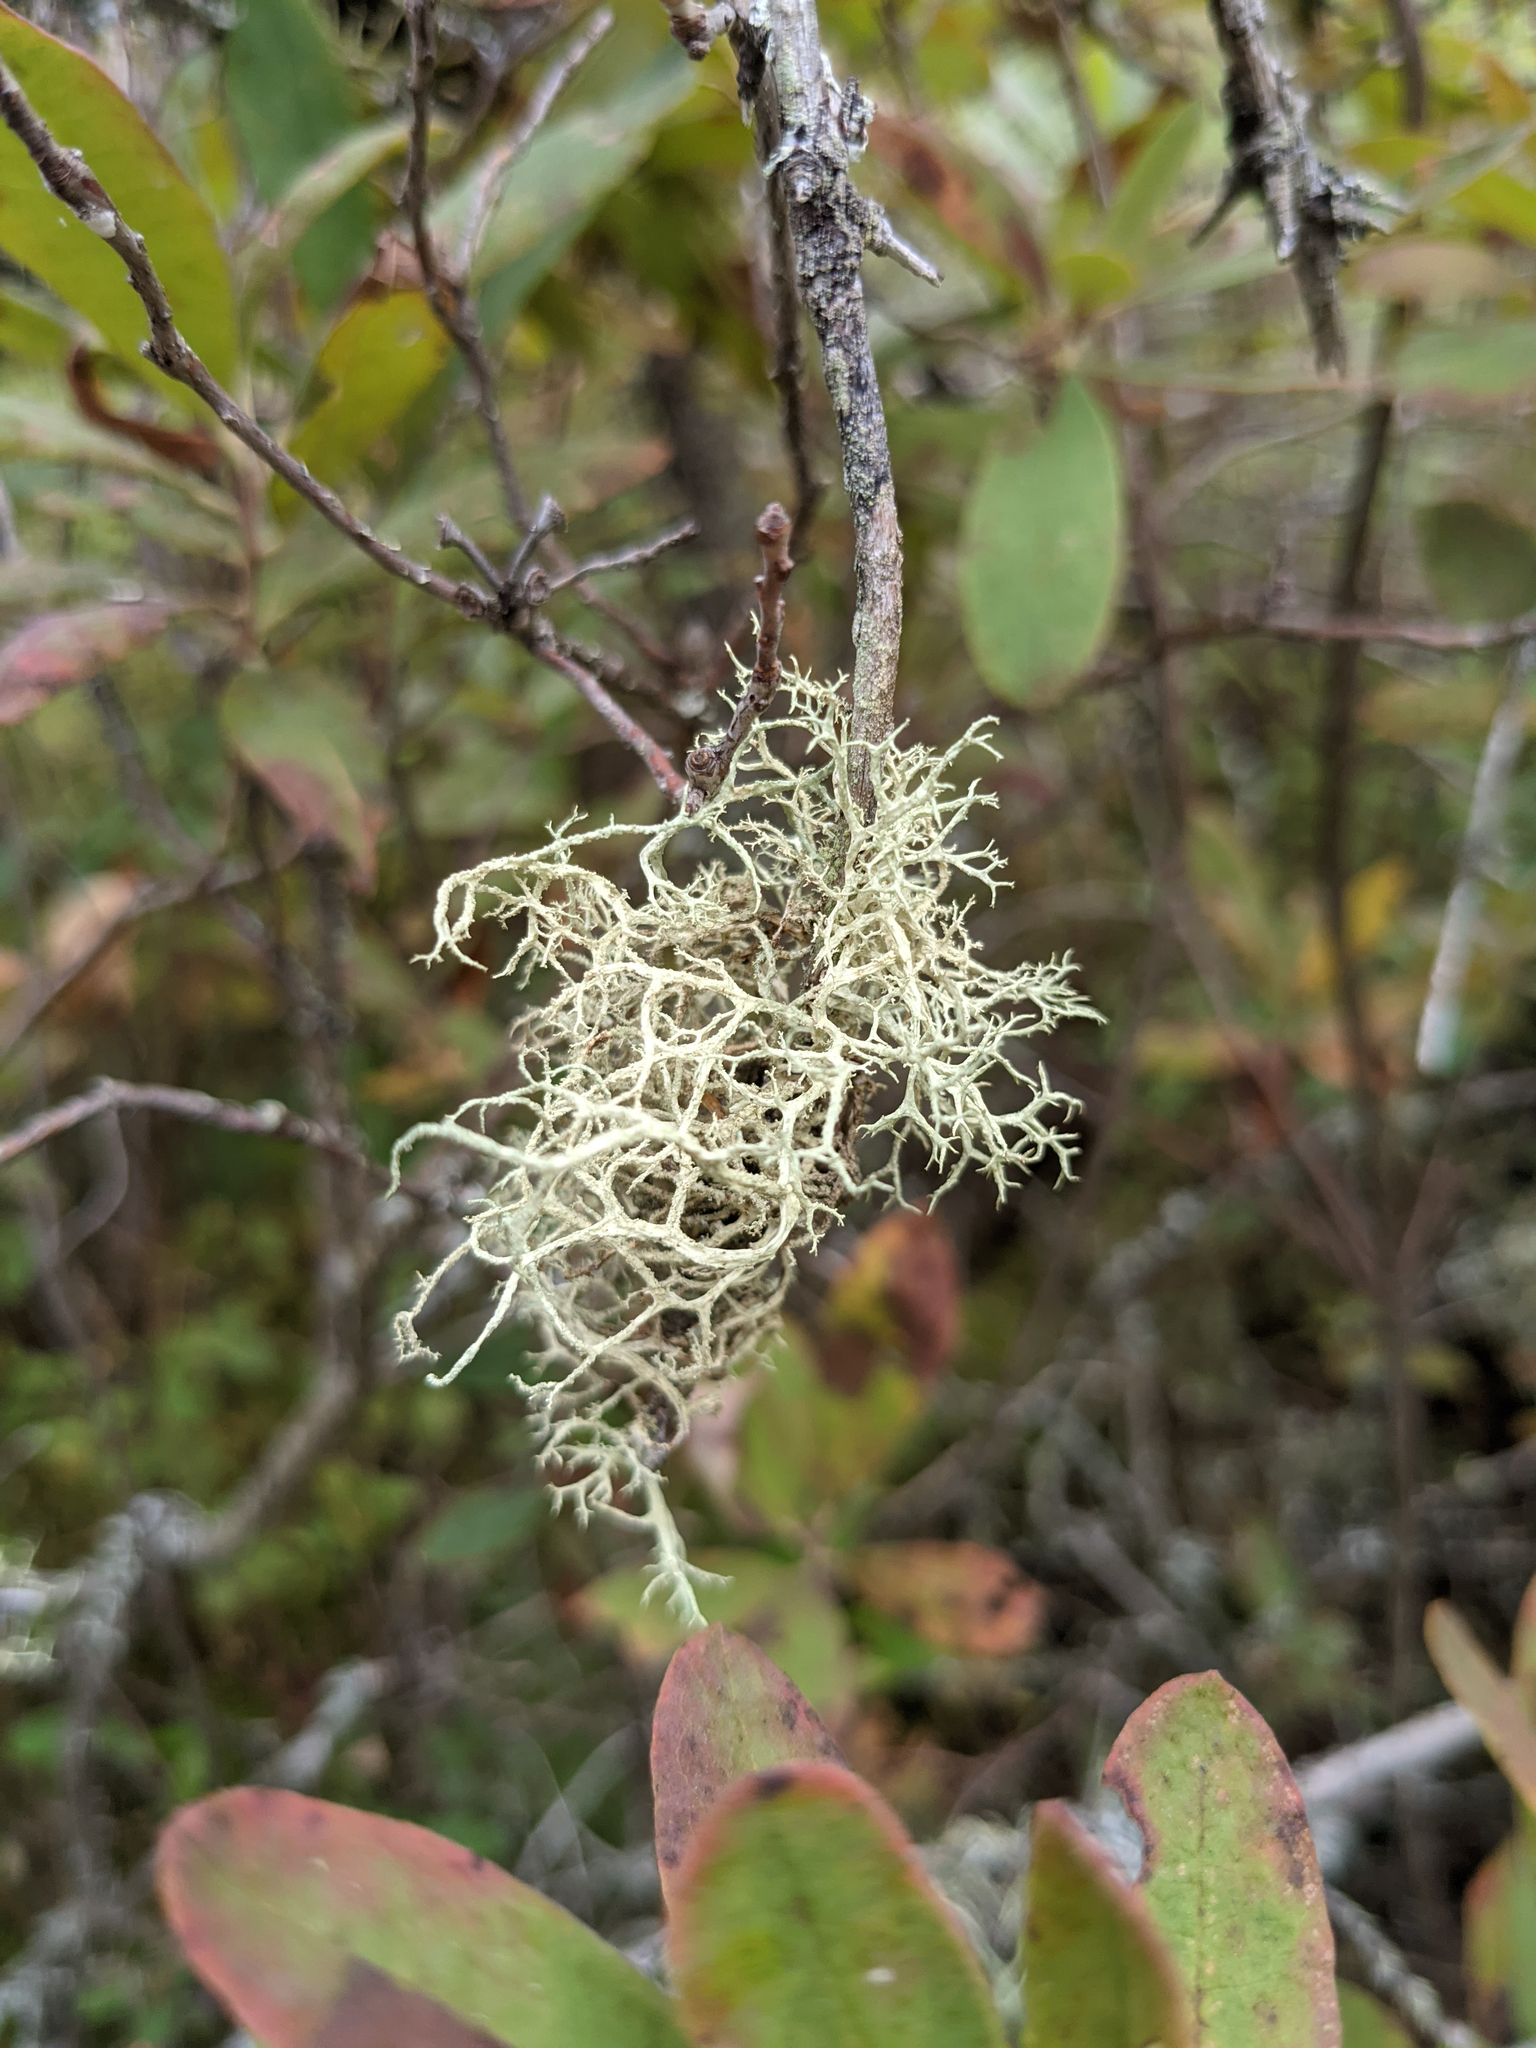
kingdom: Fungi
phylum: Ascomycota
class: Lecanoromycetes
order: Lecanorales
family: Parmeliaceae
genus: Evernia
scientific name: Evernia mesomorpha
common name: Boreal oak moss lichen
